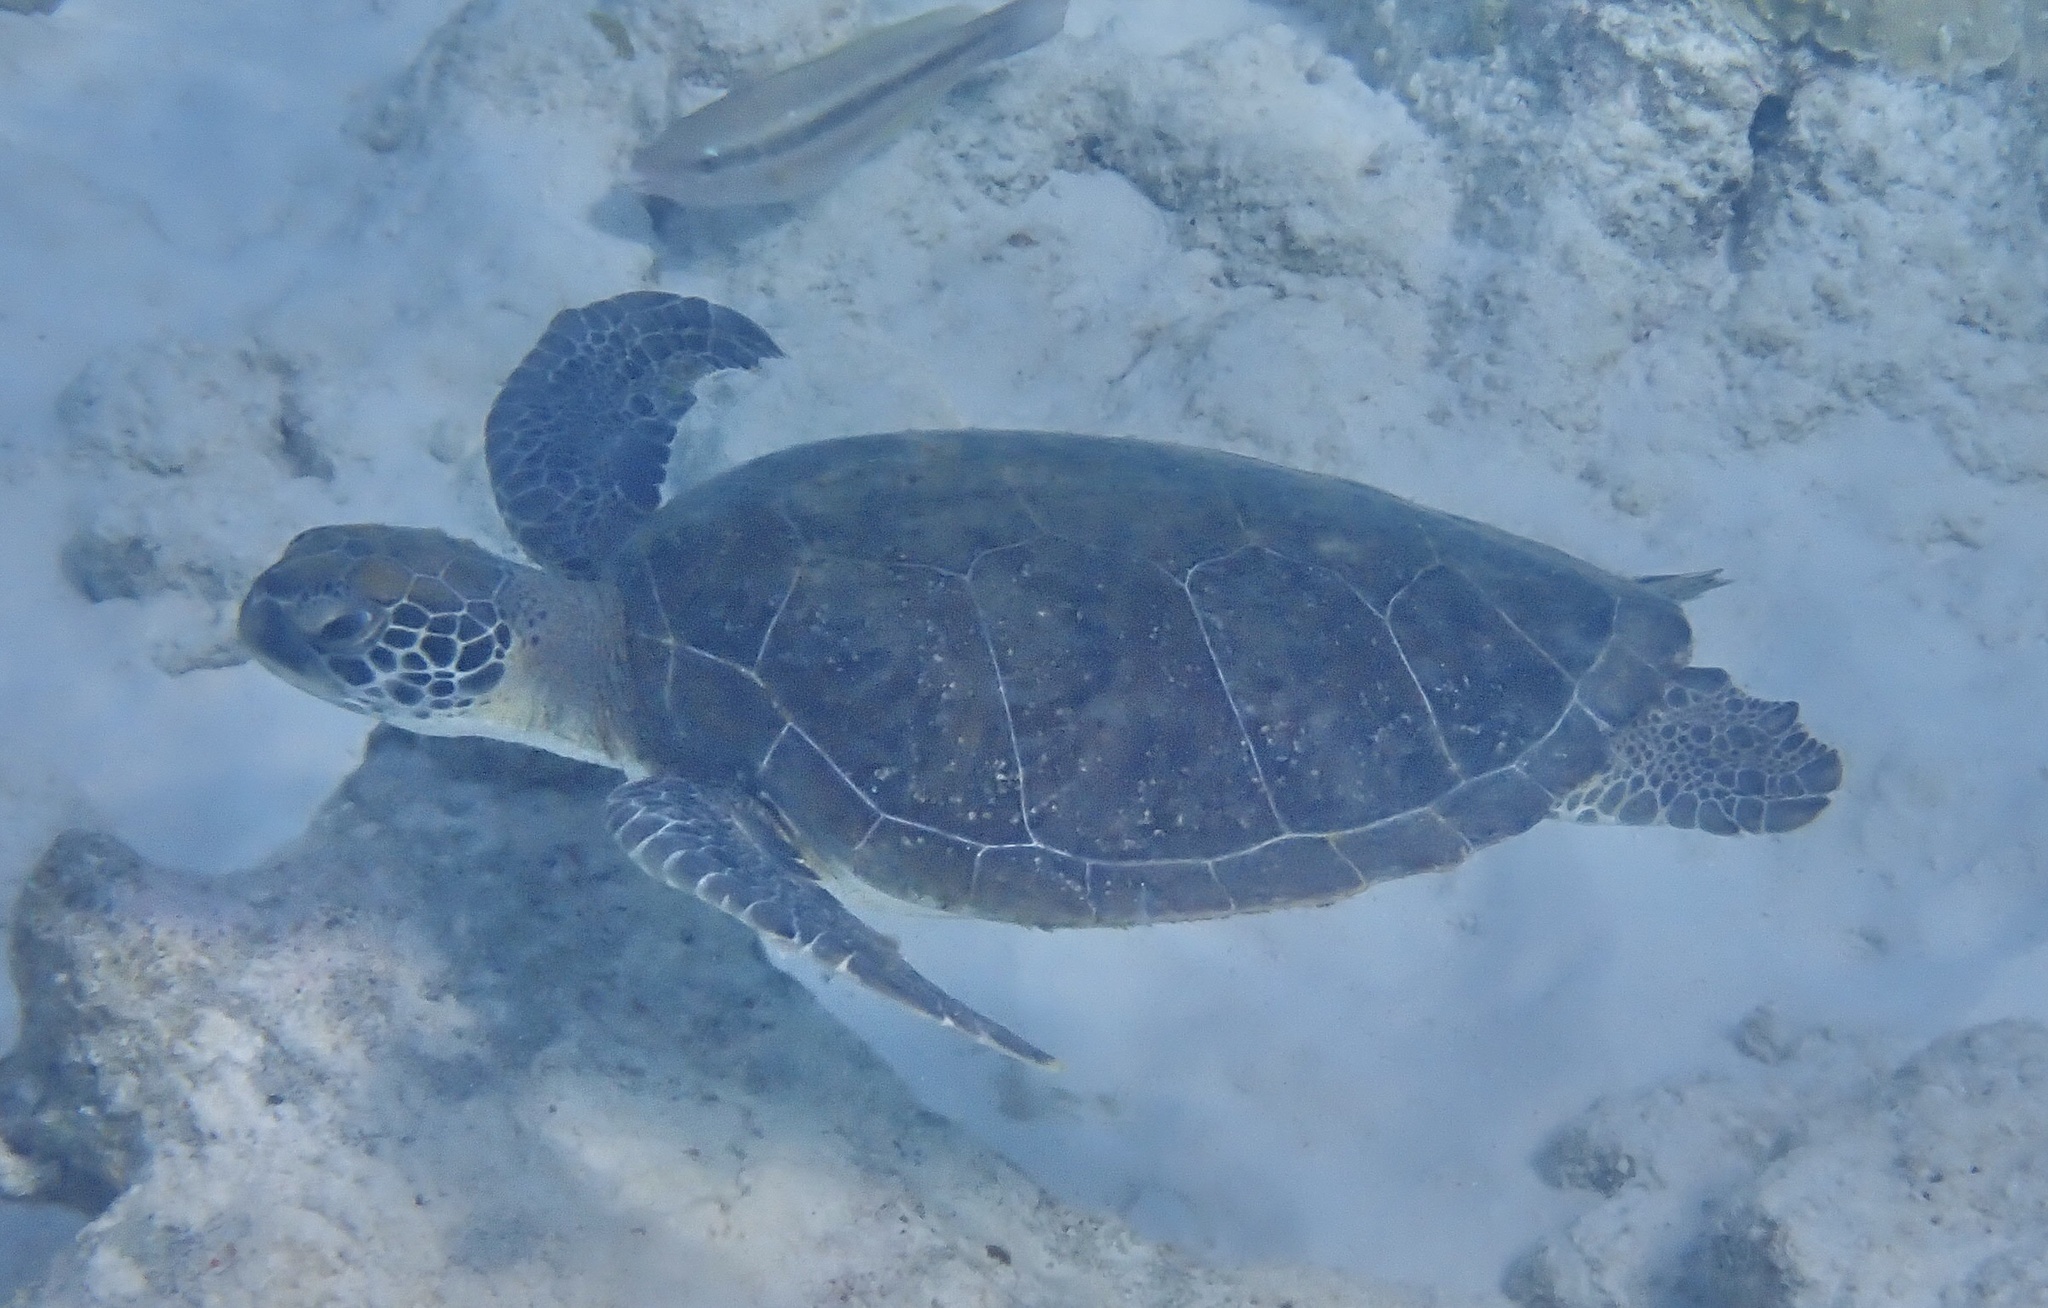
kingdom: Animalia
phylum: Chordata
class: Testudines
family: Cheloniidae
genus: Chelonia
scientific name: Chelonia mydas
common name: Green turtle
